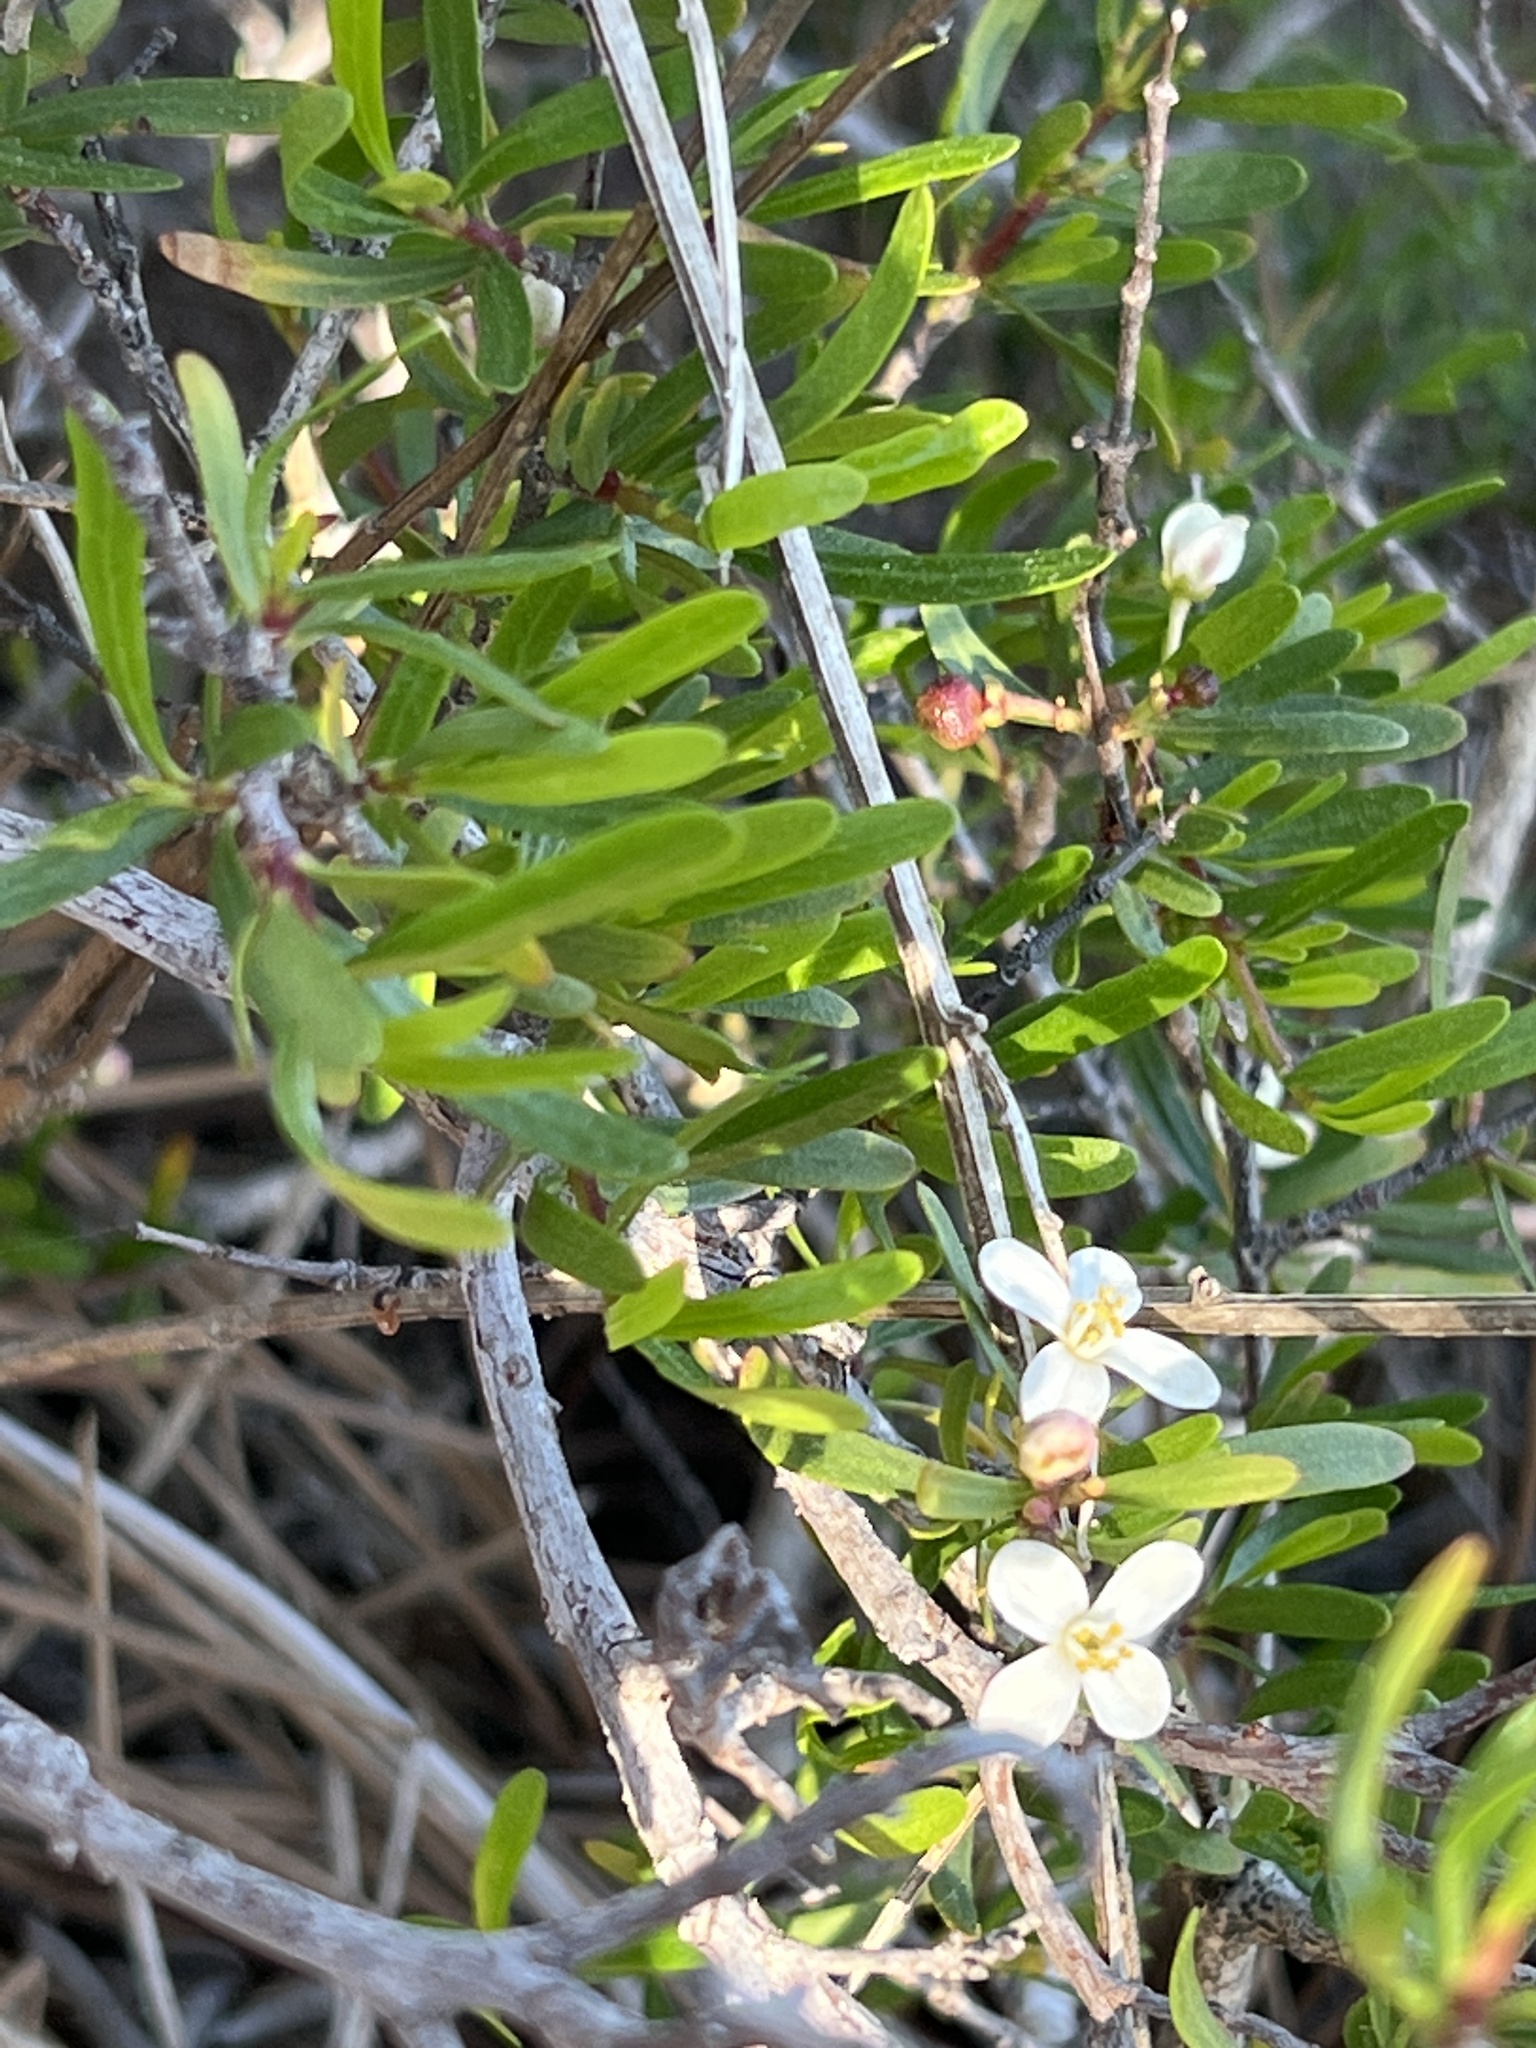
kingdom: Plantae
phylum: Tracheophyta
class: Magnoliopsida
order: Sapindales
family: Rutaceae
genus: Cneoridium
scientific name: Cneoridium dumosum
